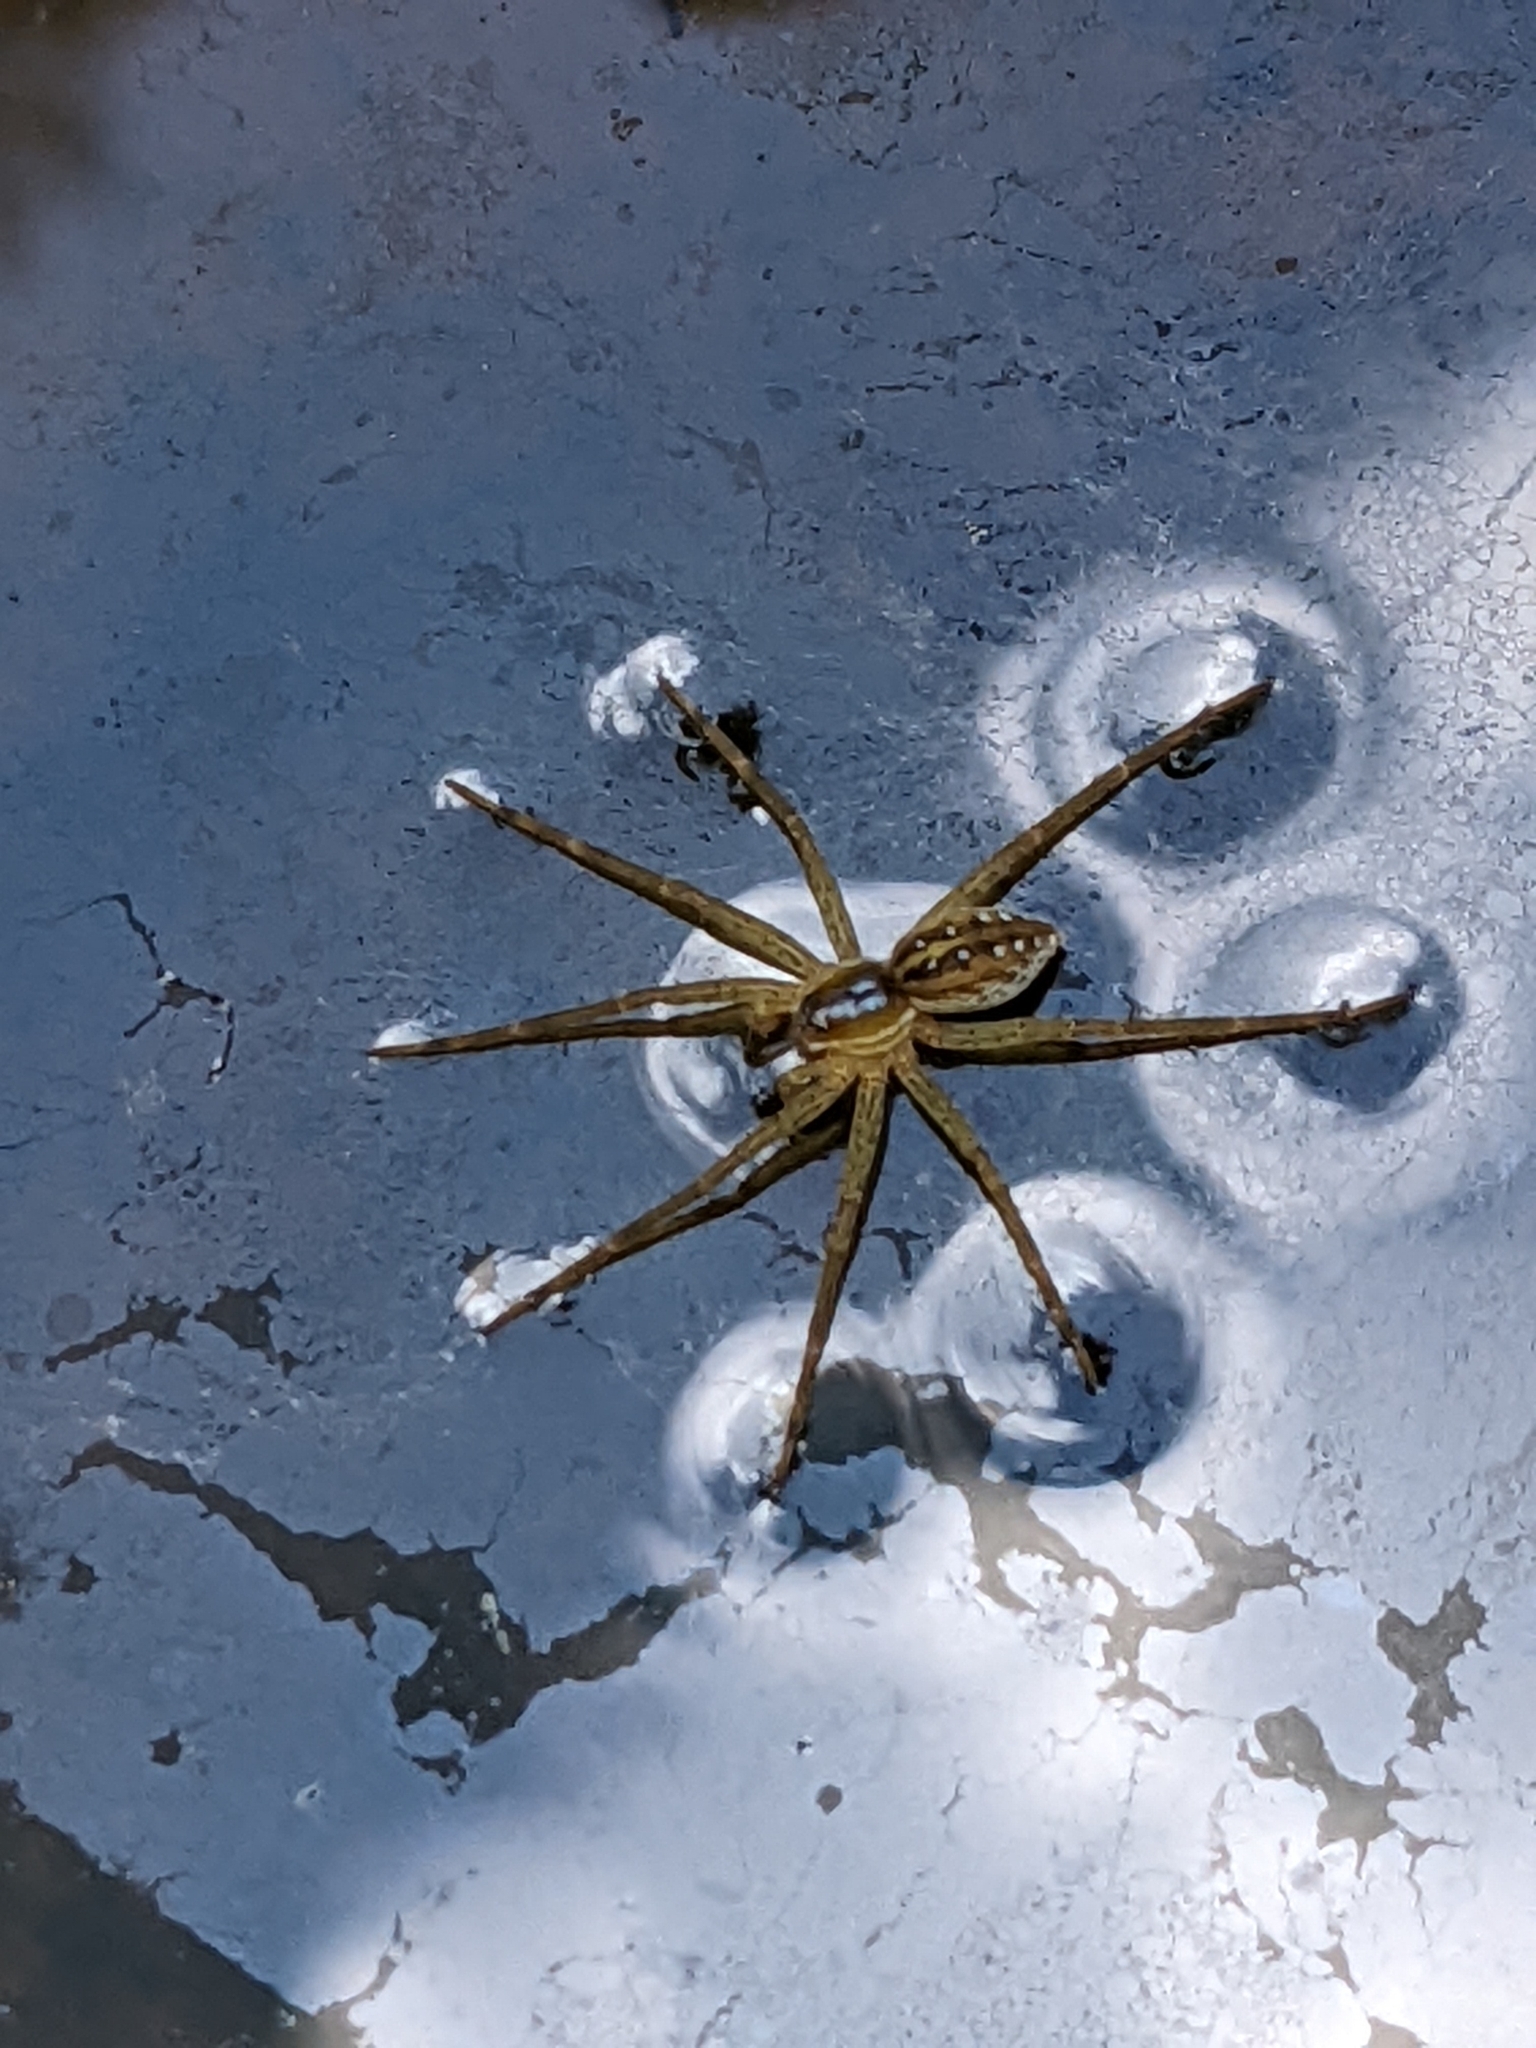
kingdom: Animalia
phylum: Arthropoda
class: Arachnida
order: Araneae
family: Pisauridae
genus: Dolomedes
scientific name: Dolomedes triton
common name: Six-spotted fishing spider
